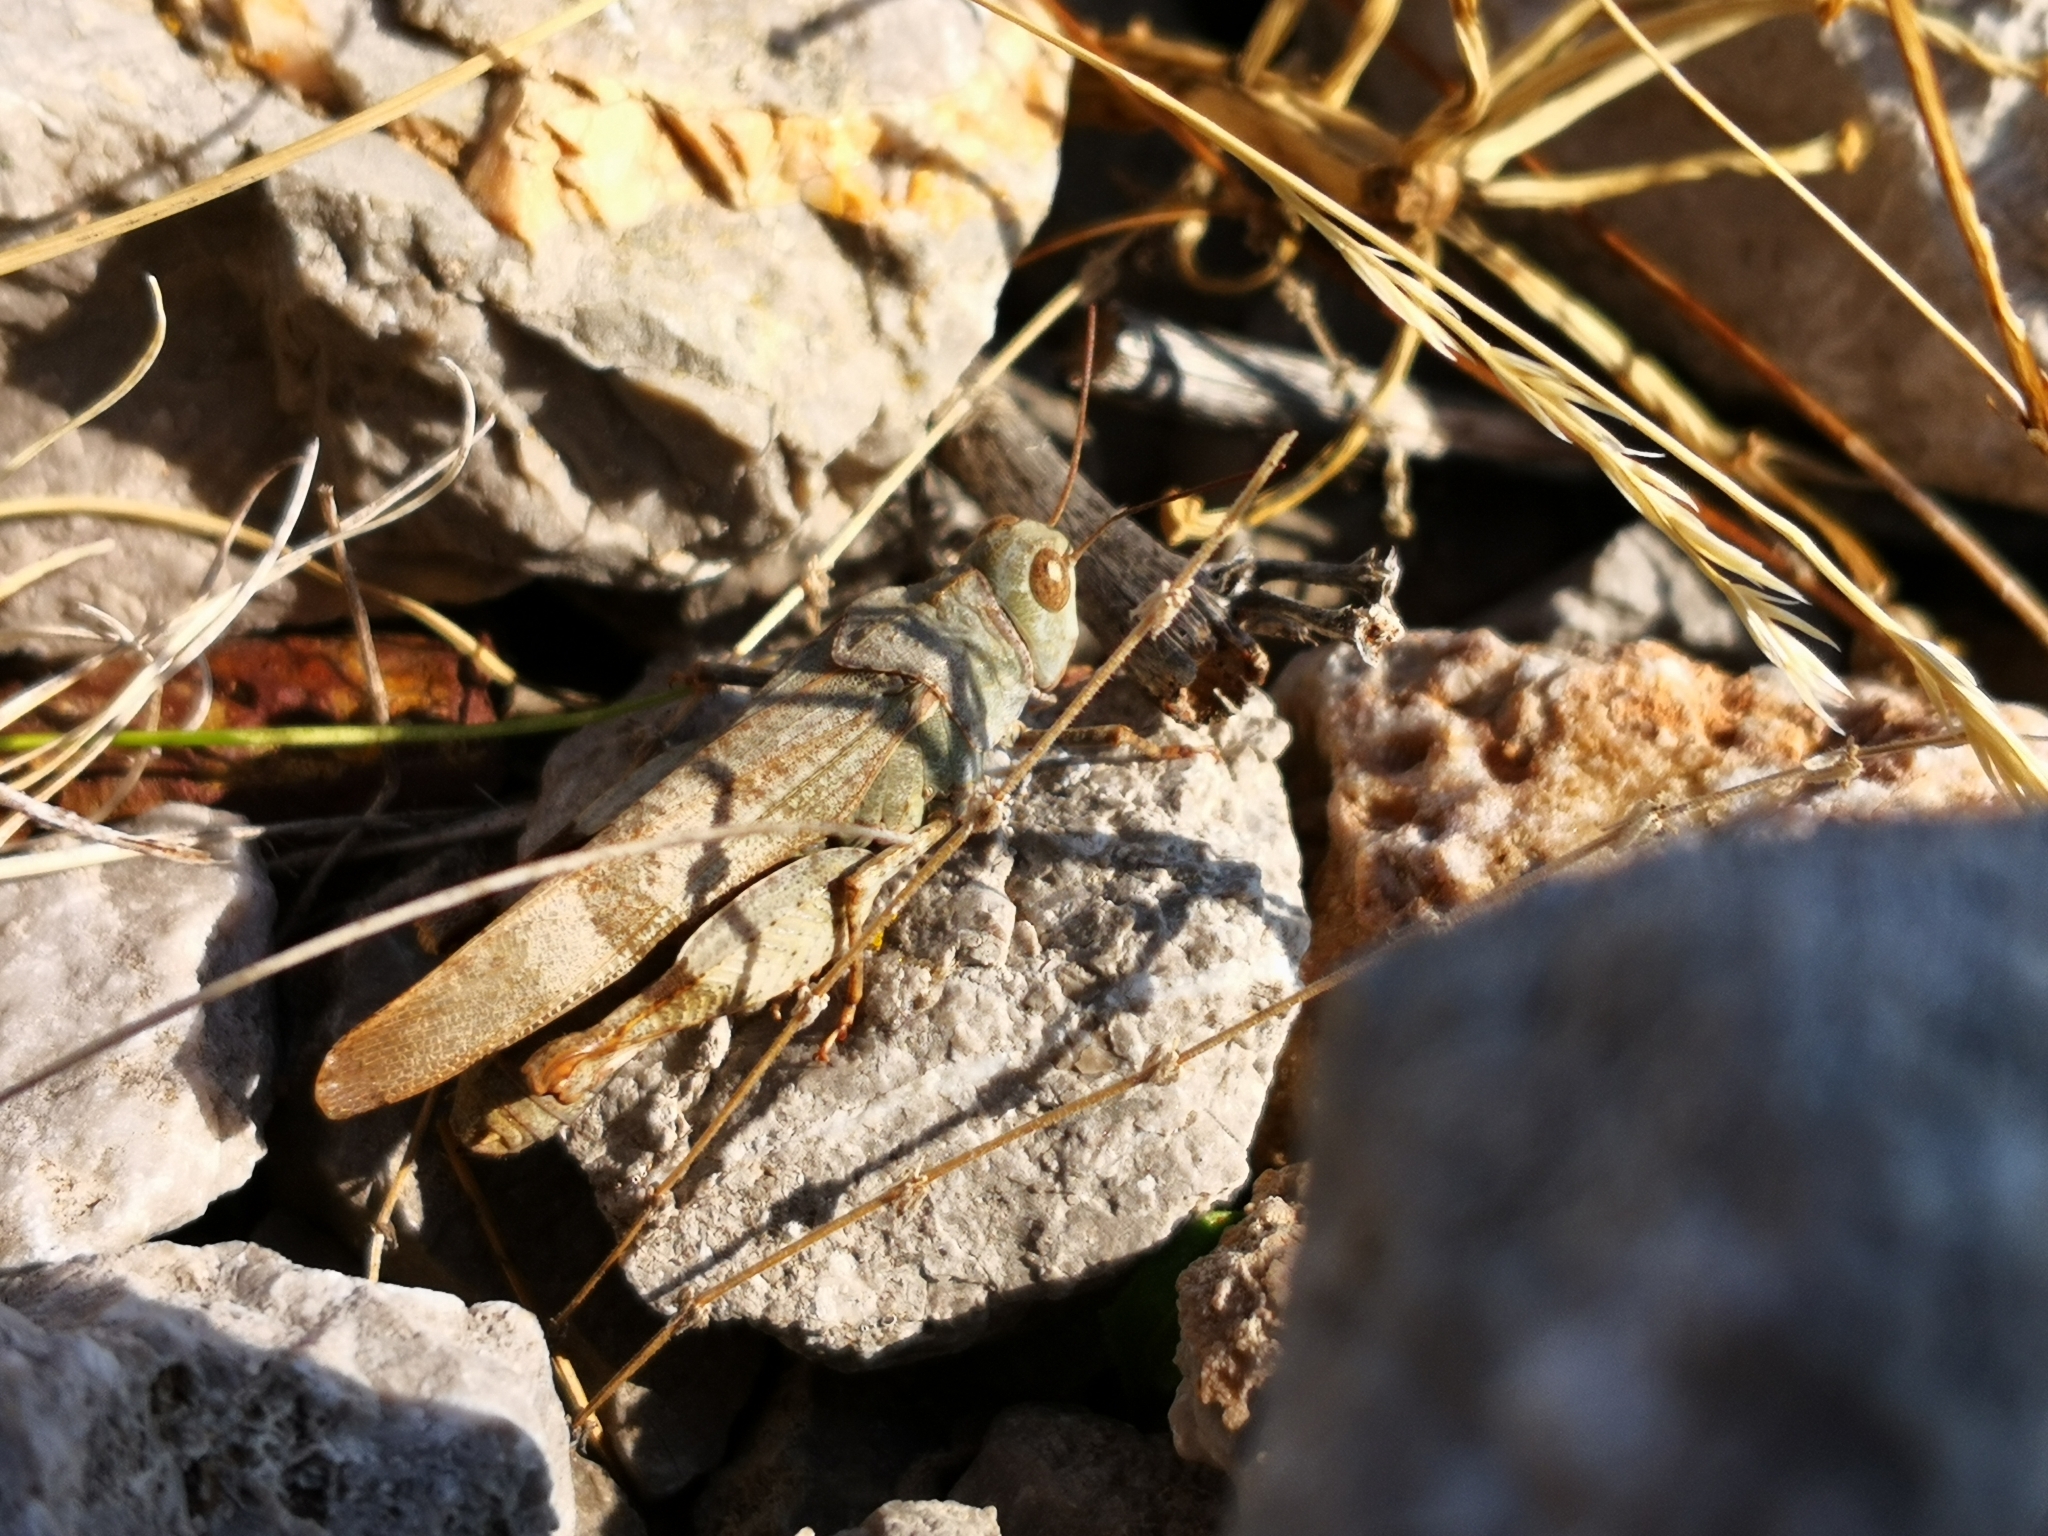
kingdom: Animalia
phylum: Arthropoda
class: Insecta
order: Orthoptera
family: Acrididae
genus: Oedipoda
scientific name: Oedipoda germanica
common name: Red band-winged grasshopper
